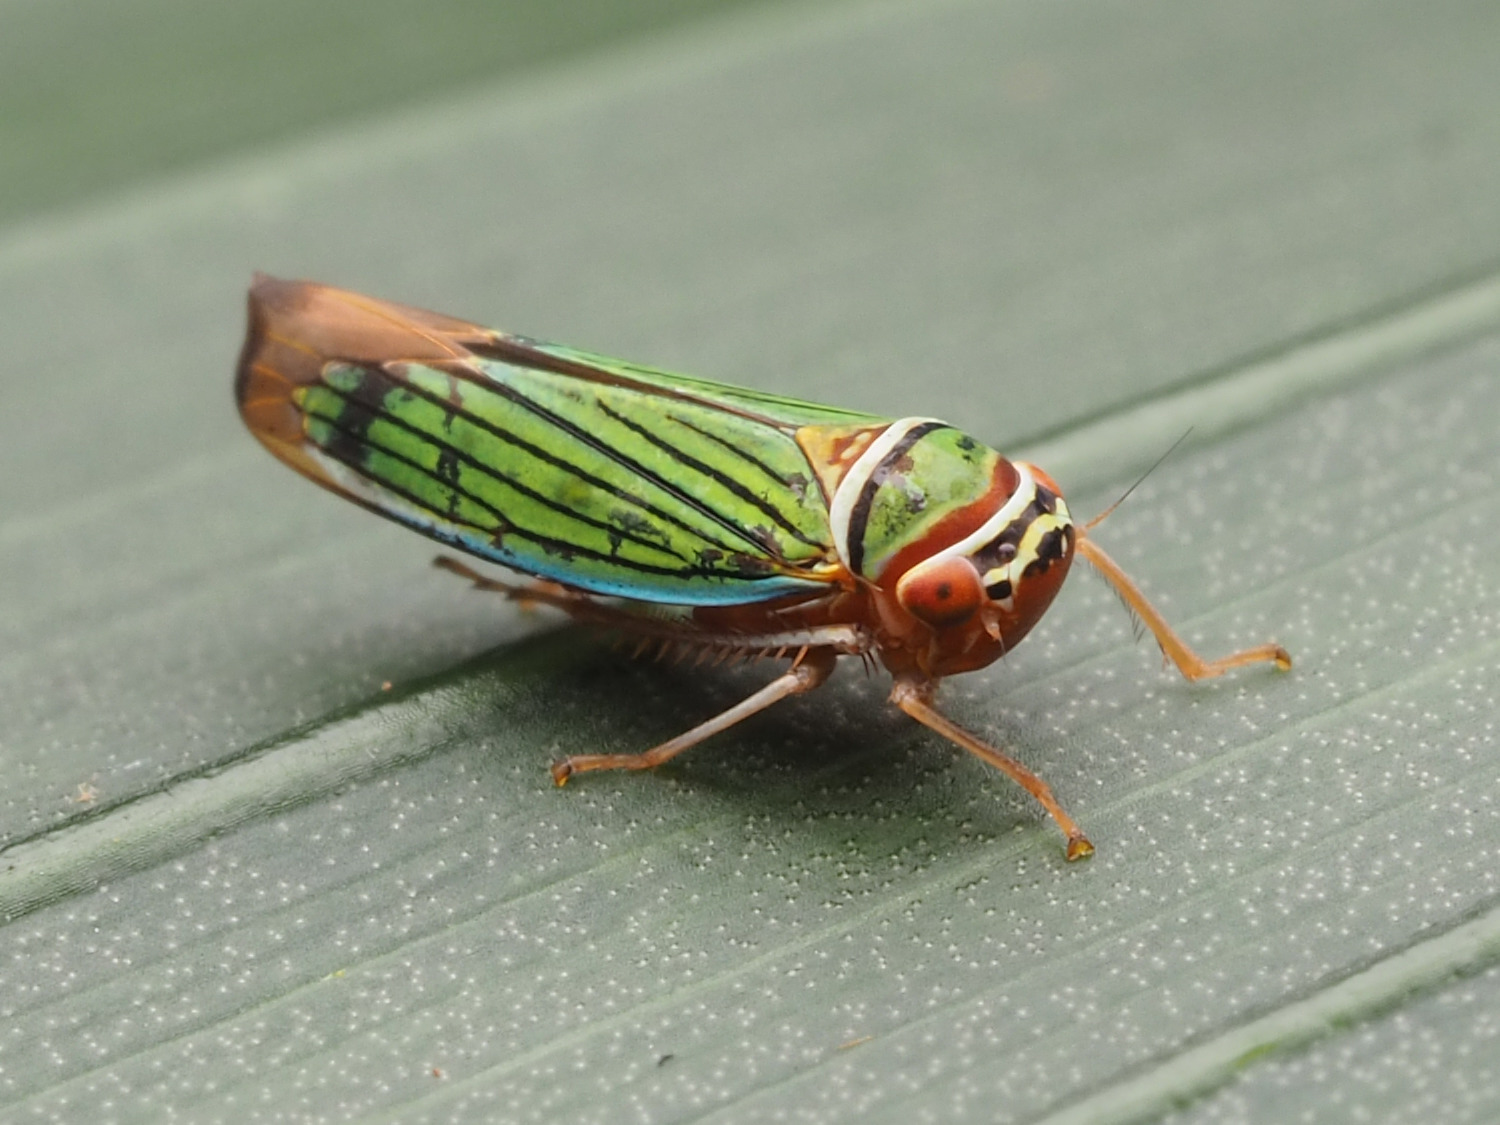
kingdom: Animalia
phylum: Arthropoda
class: Insecta
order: Hemiptera
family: Cicadellidae
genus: Tylozygus
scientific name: Tylozygus fuscolineellus
